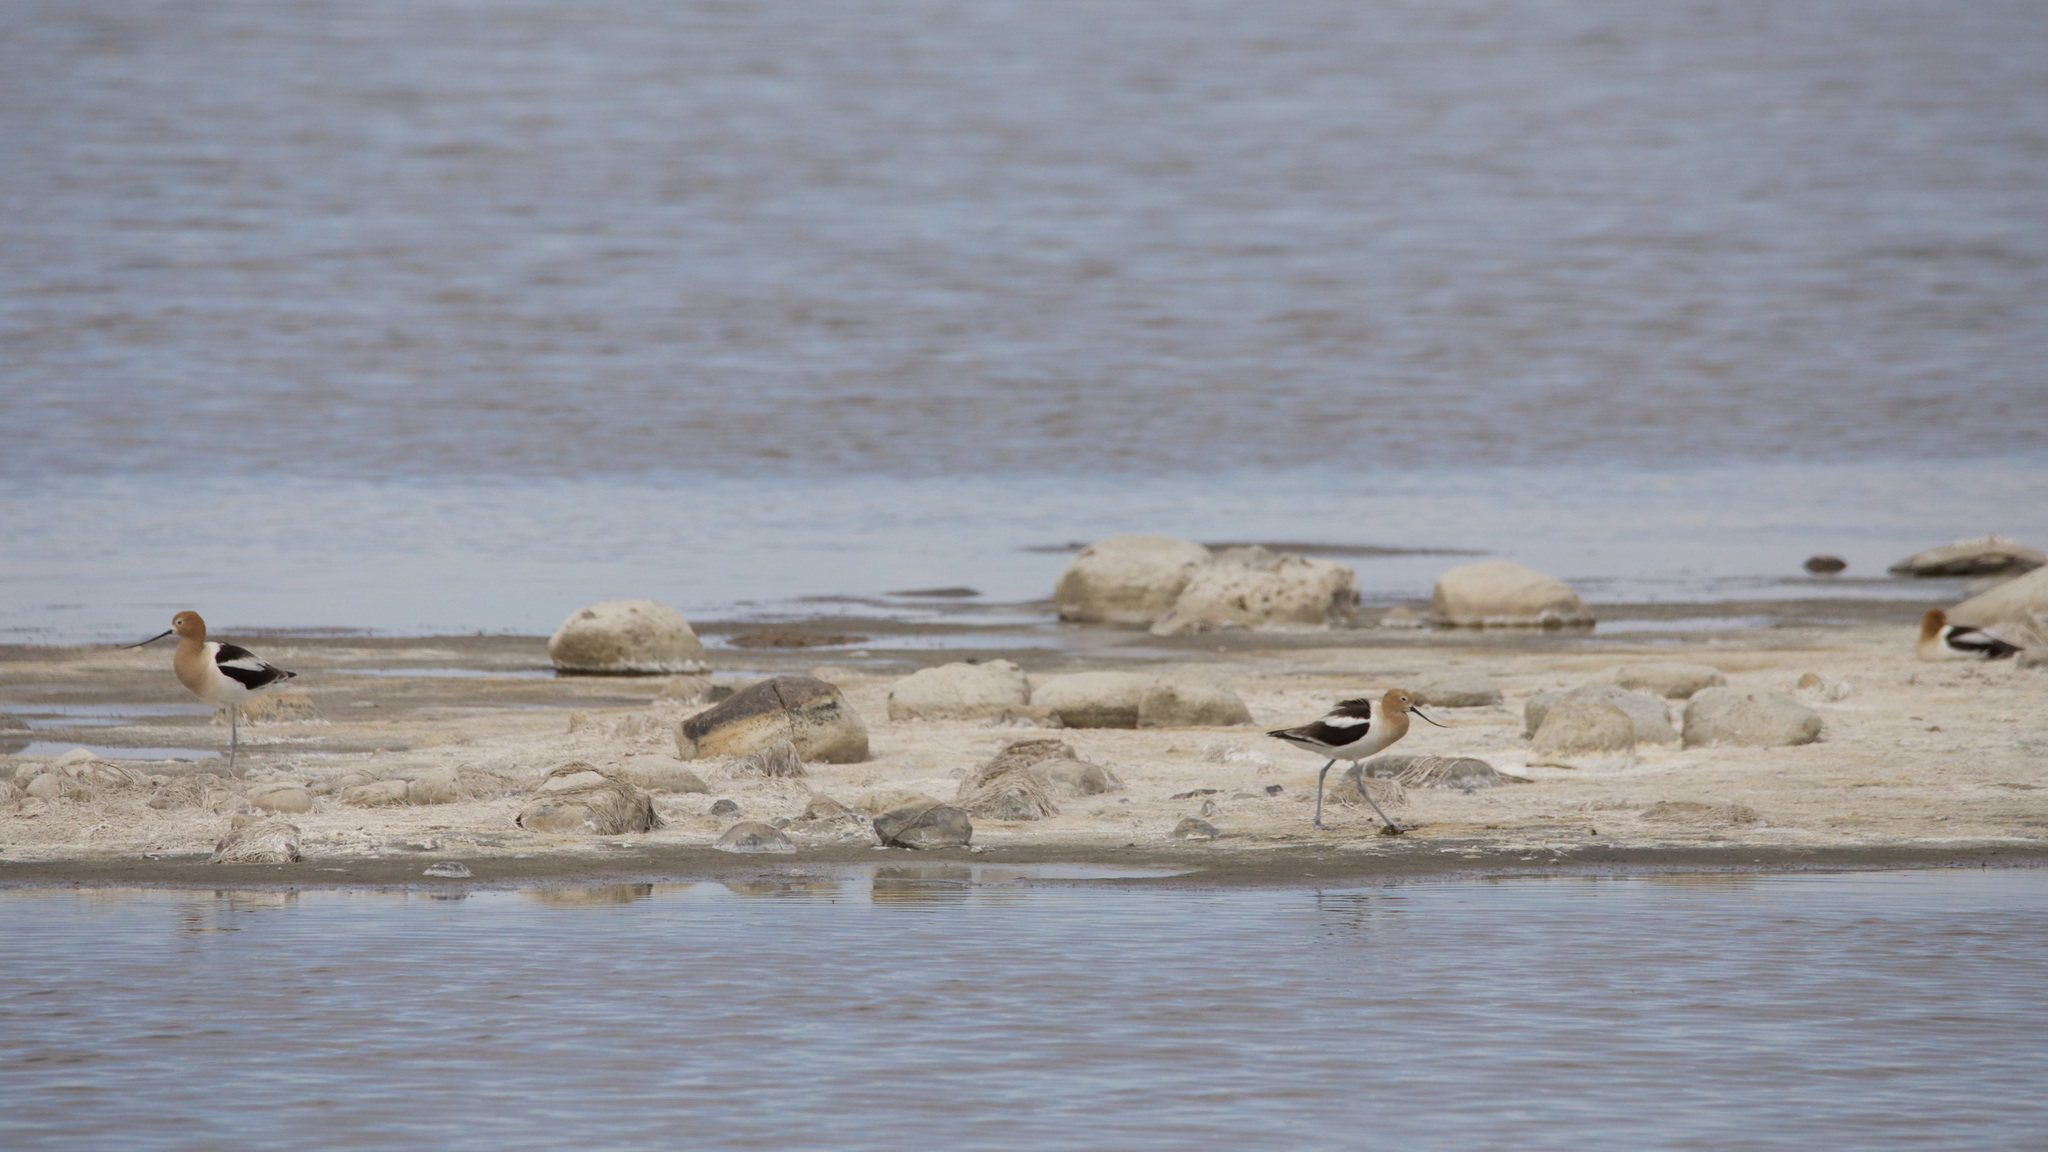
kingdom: Animalia
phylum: Chordata
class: Aves
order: Charadriiformes
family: Recurvirostridae
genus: Recurvirostra
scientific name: Recurvirostra americana
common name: American avocet
